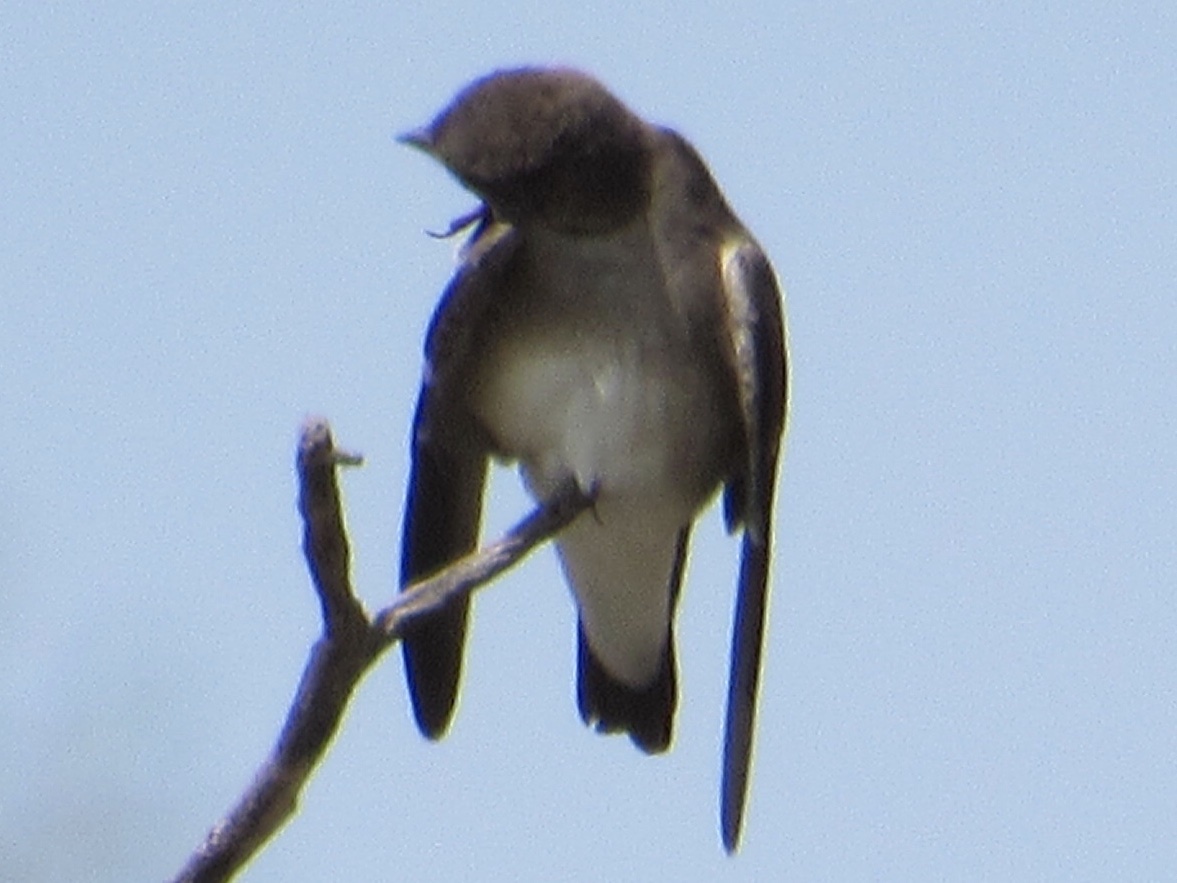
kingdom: Animalia
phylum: Chordata
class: Aves
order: Passeriformes
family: Hirundinidae
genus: Stelgidopteryx
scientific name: Stelgidopteryx serripennis
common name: Northern rough-winged swallow
